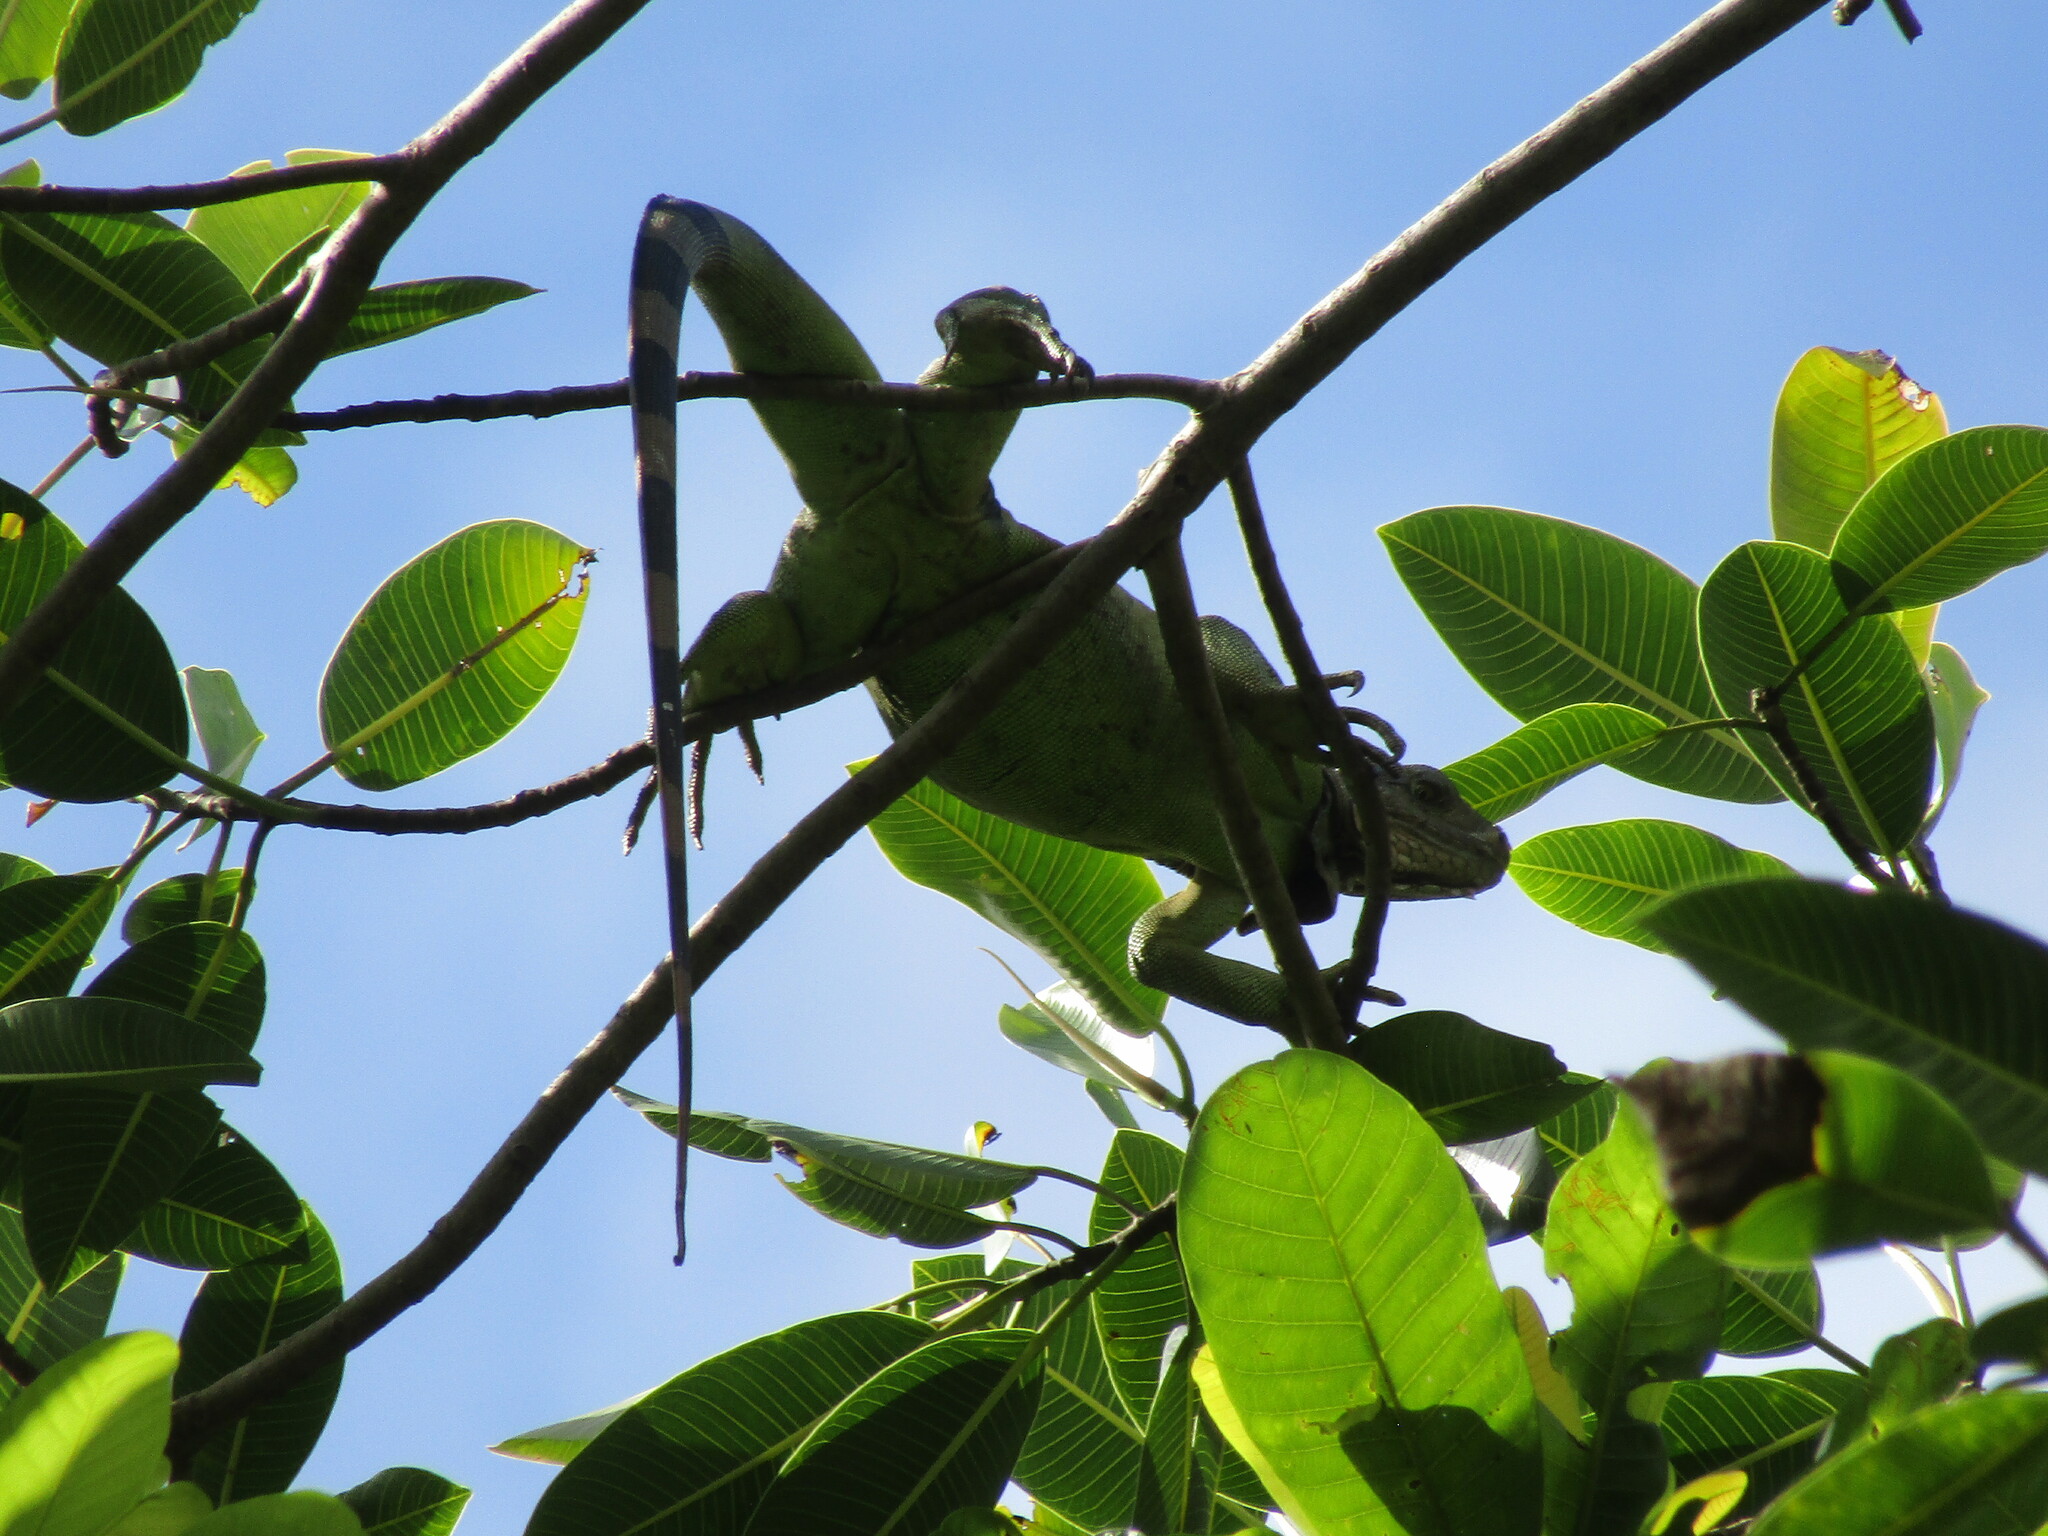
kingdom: Animalia
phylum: Chordata
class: Squamata
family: Iguanidae
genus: Iguana
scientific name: Iguana iguana
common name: Green iguana
